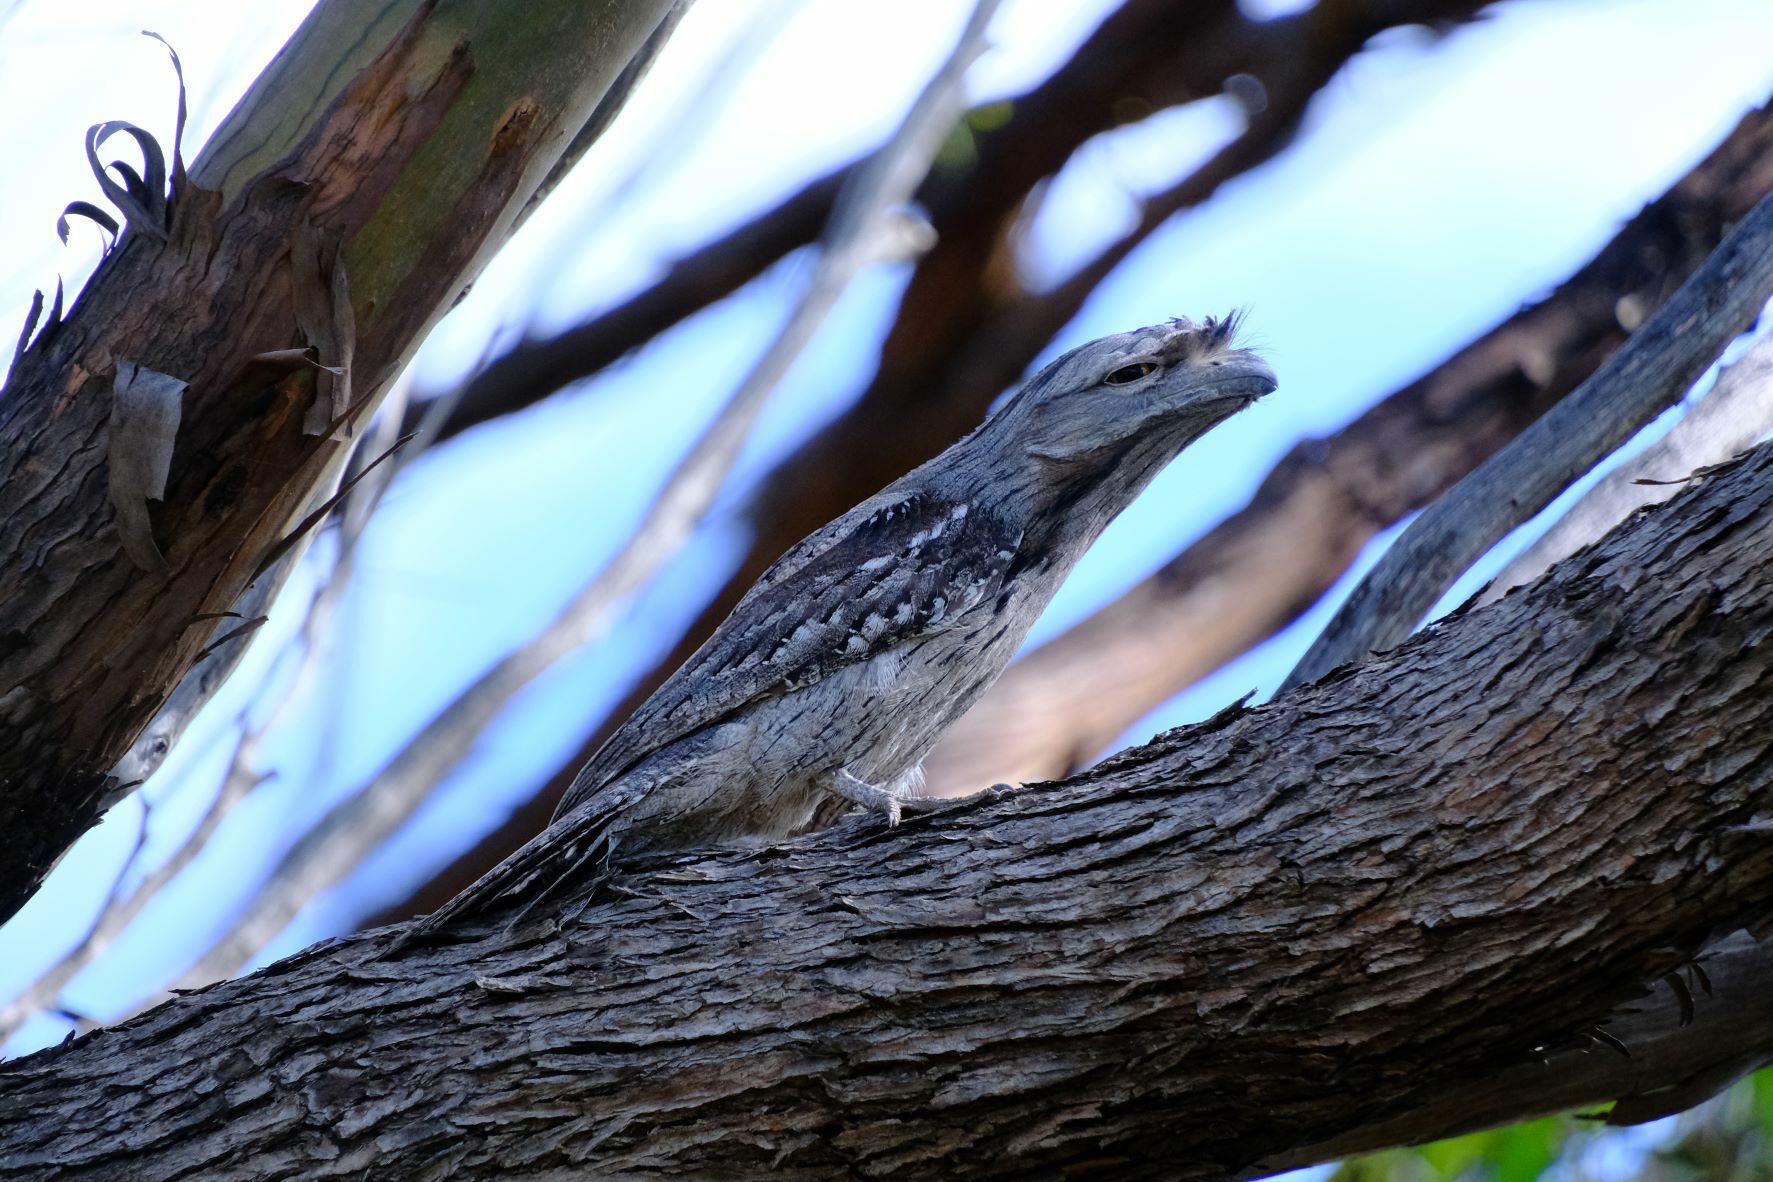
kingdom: Animalia
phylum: Chordata
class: Aves
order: Caprimulgiformes
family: Podargidae
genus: Podargus
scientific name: Podargus strigoides
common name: Tawny frogmouth
